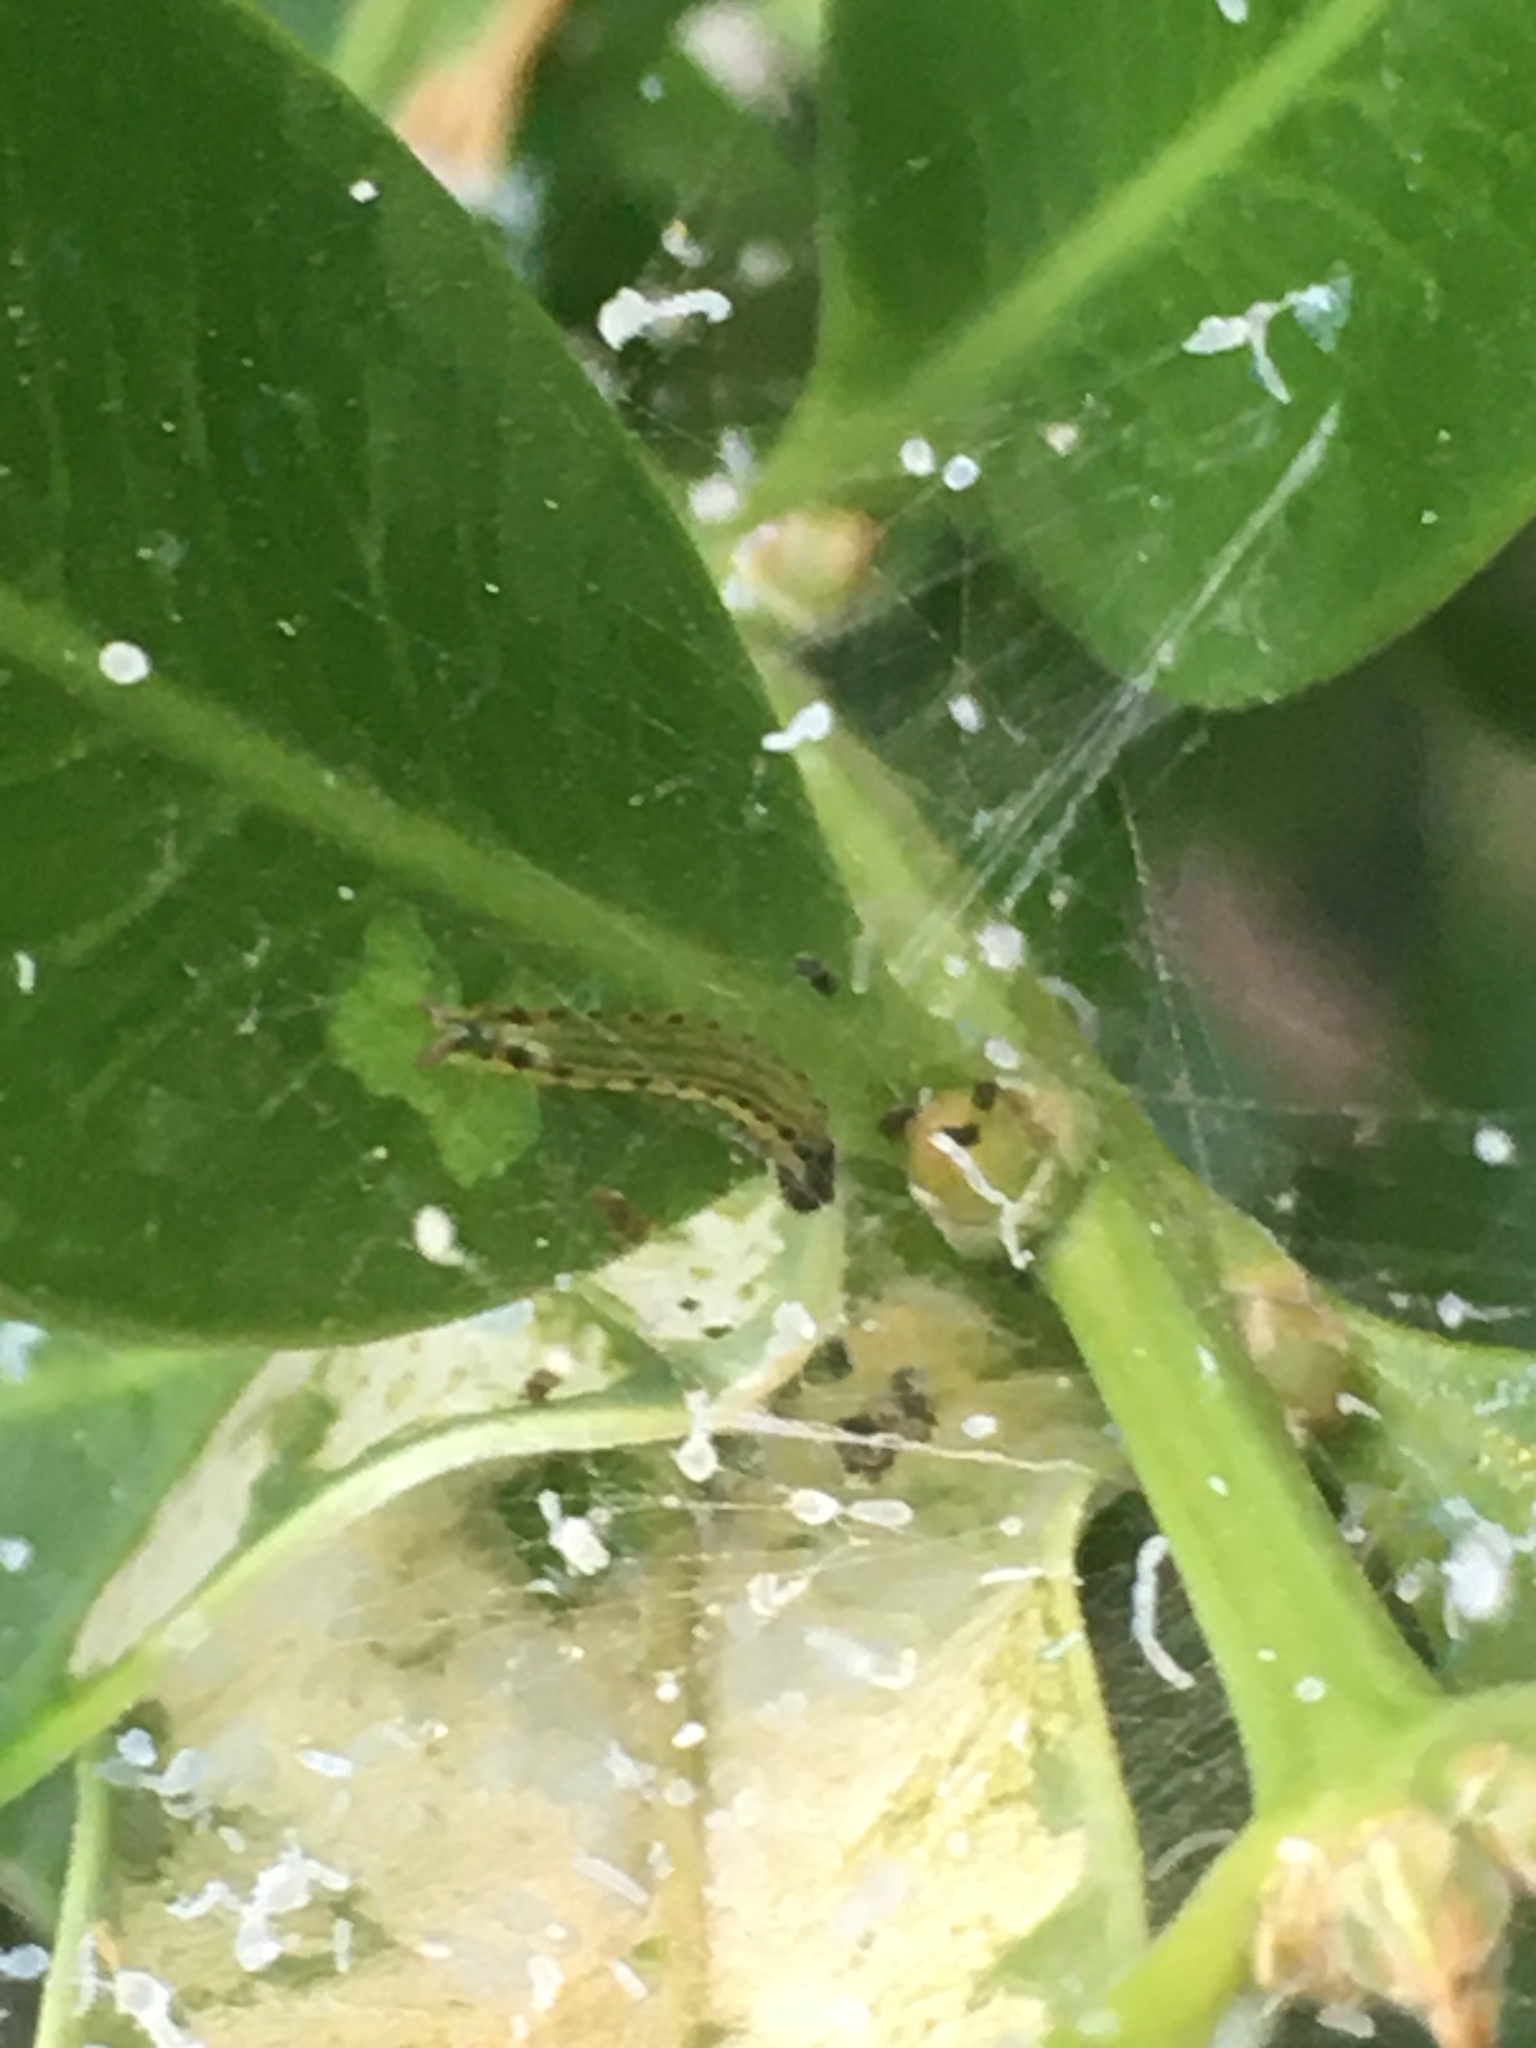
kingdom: Animalia
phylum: Arthropoda
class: Insecta
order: Lepidoptera
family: Crambidae
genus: Cydalima
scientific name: Cydalima perspectalis
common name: Box tree moth
